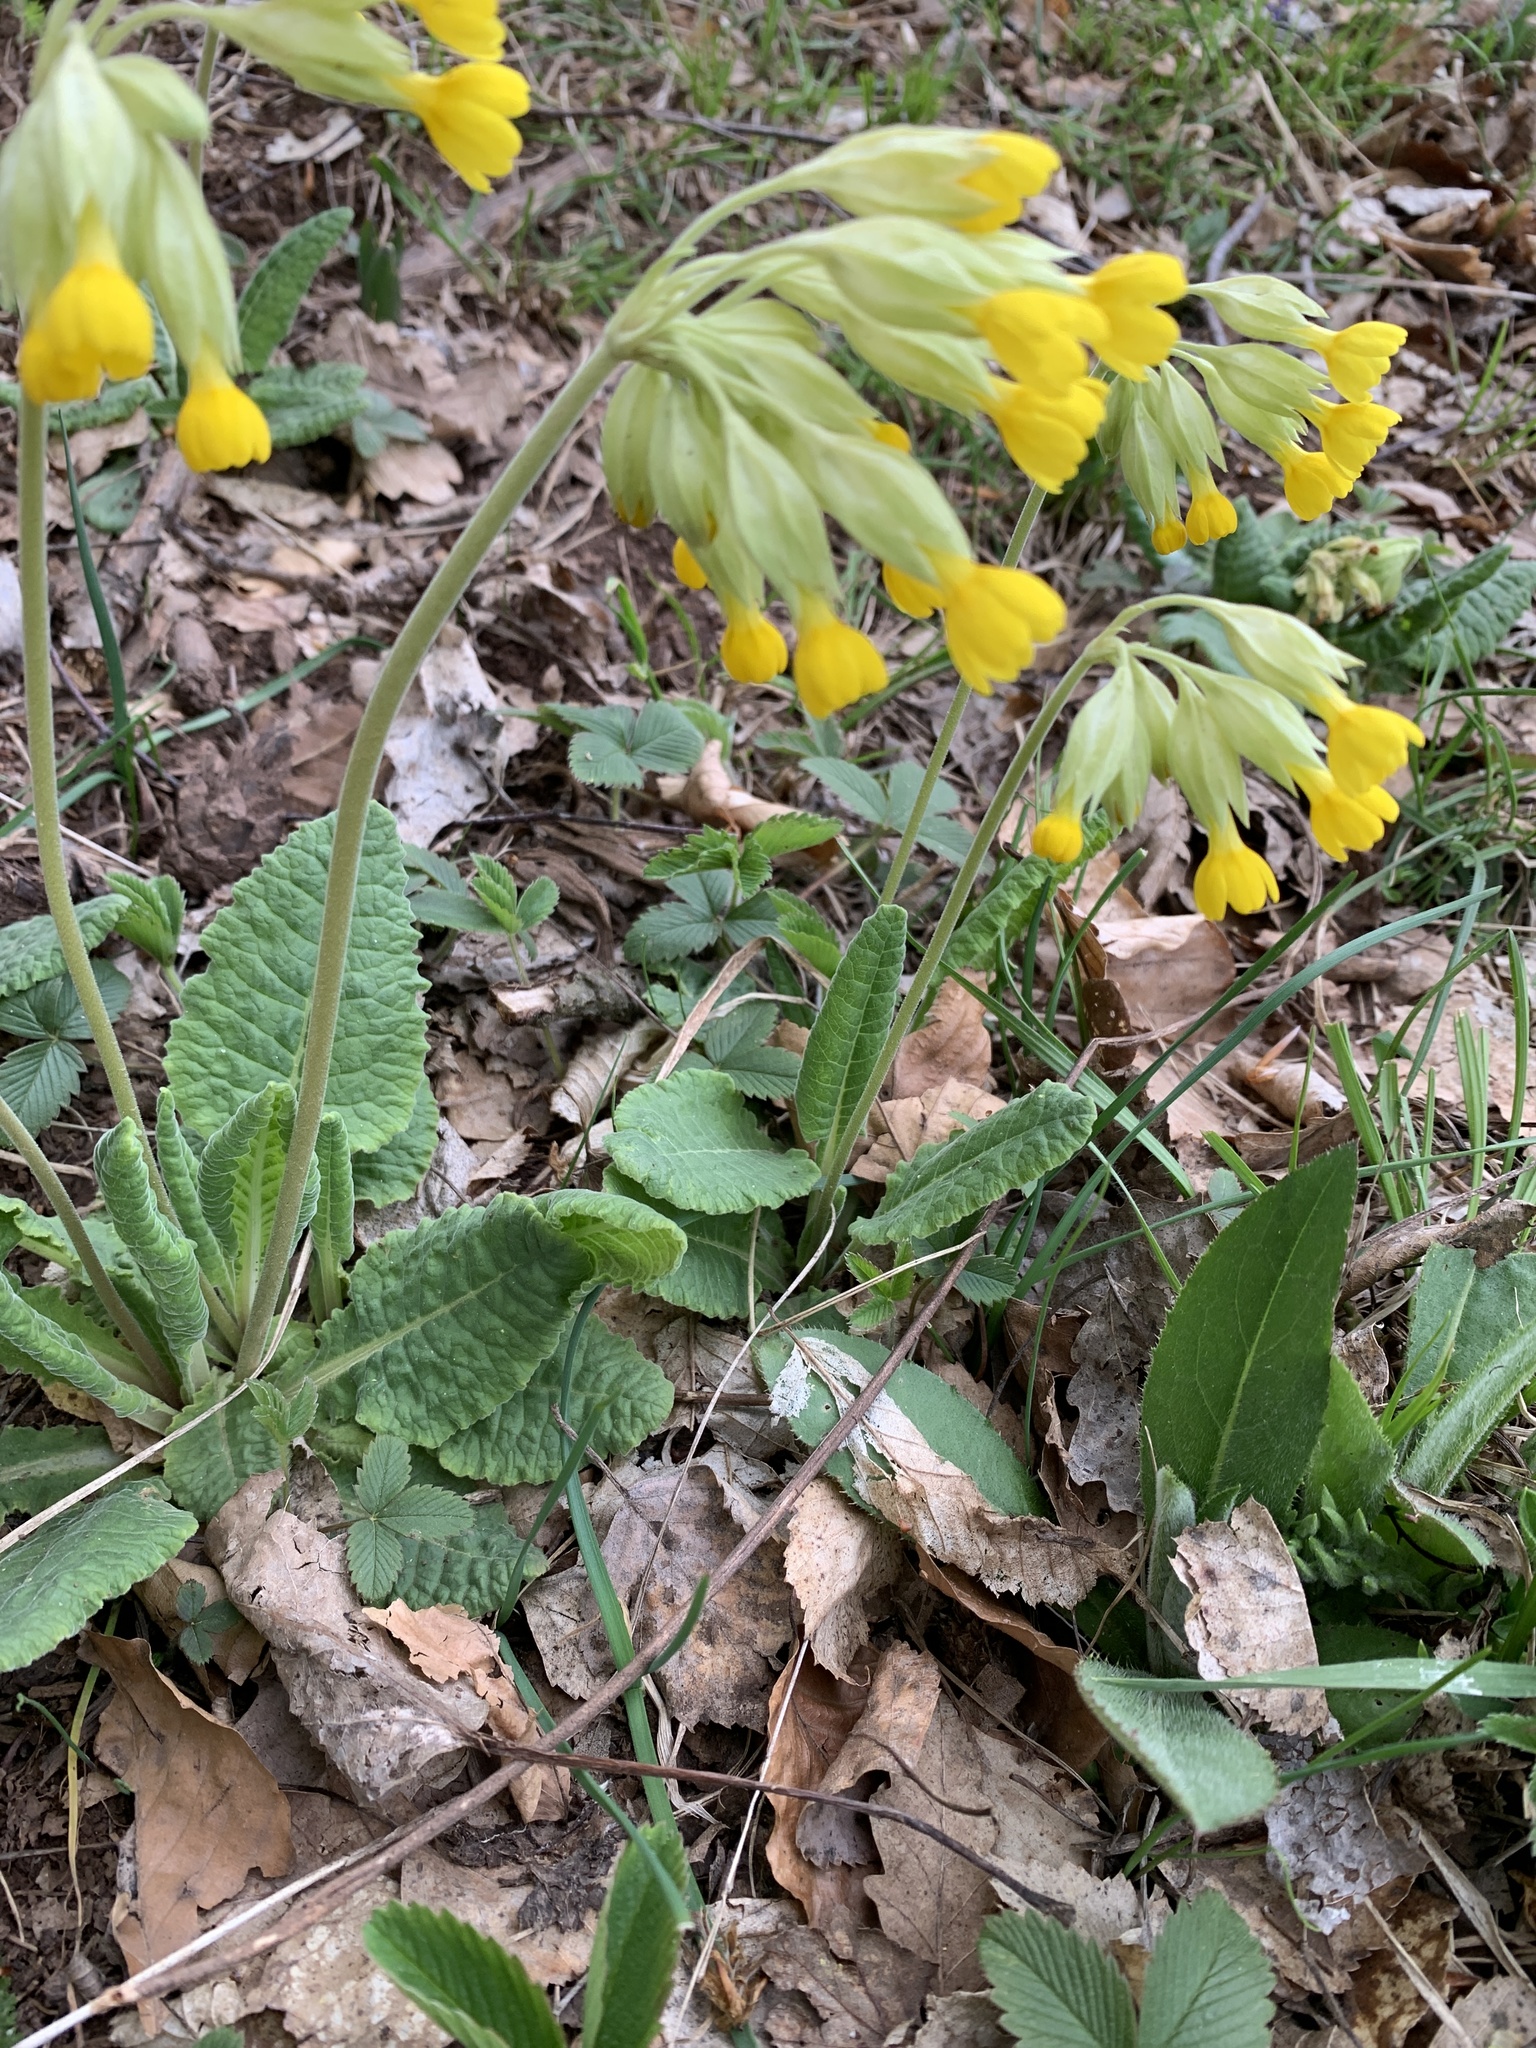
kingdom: Plantae
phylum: Tracheophyta
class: Magnoliopsida
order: Ericales
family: Primulaceae
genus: Primula
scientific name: Primula veris
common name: Cowslip
